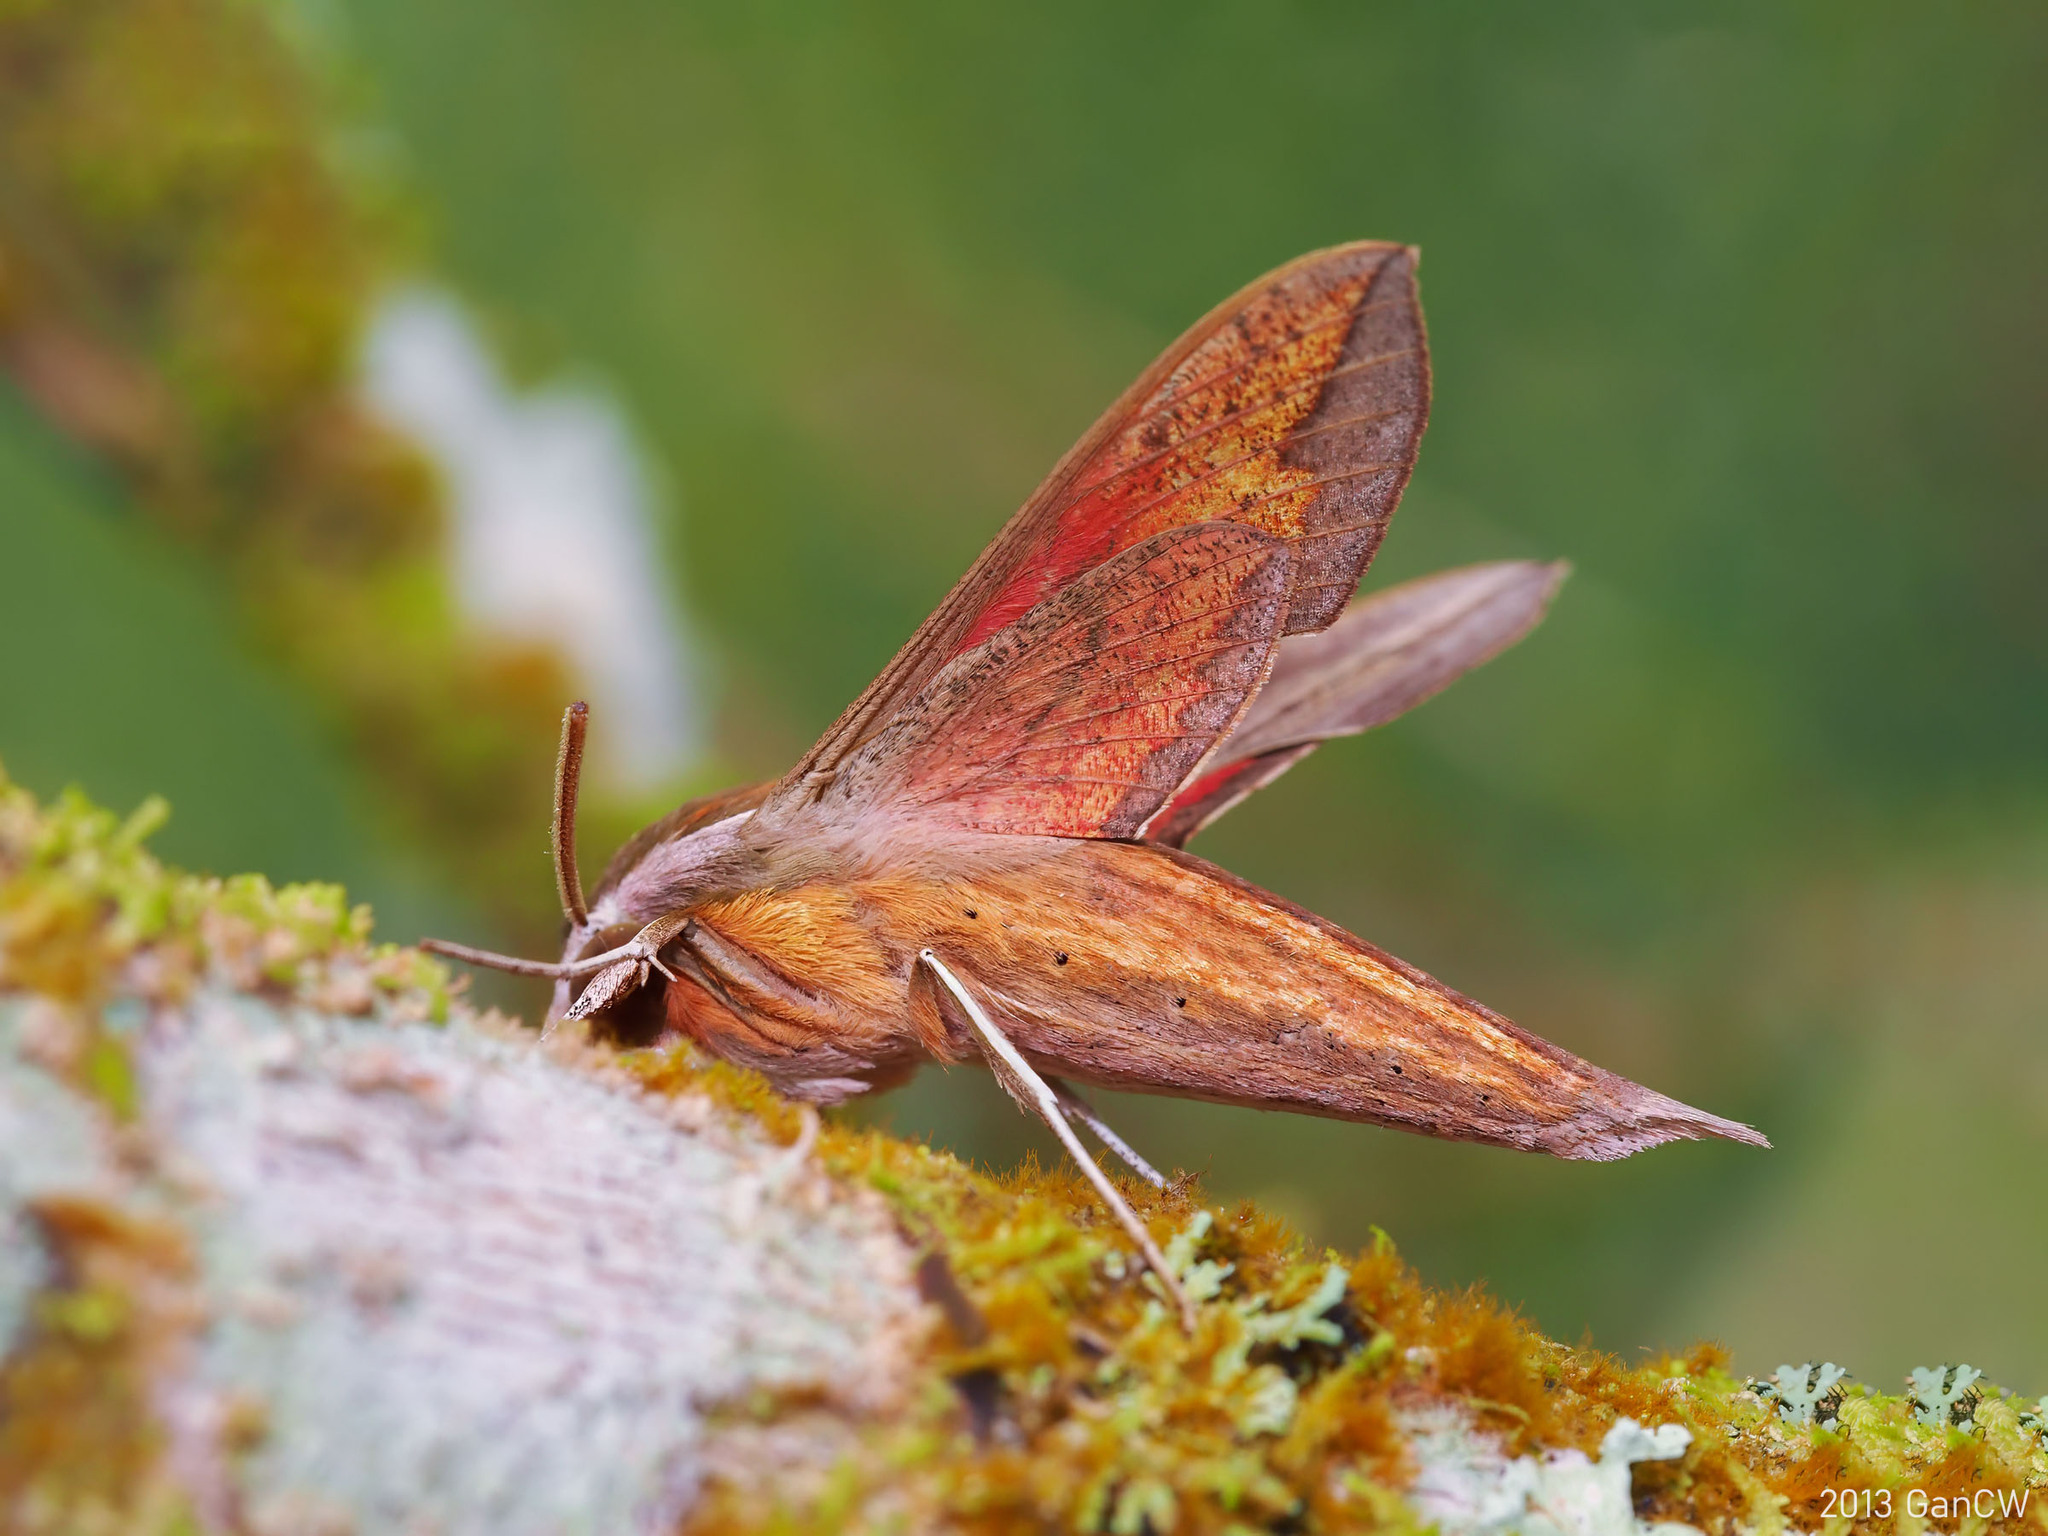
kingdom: Animalia
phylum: Arthropoda
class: Insecta
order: Lepidoptera
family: Sphingidae
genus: Hippotion
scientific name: Hippotion echeclus
